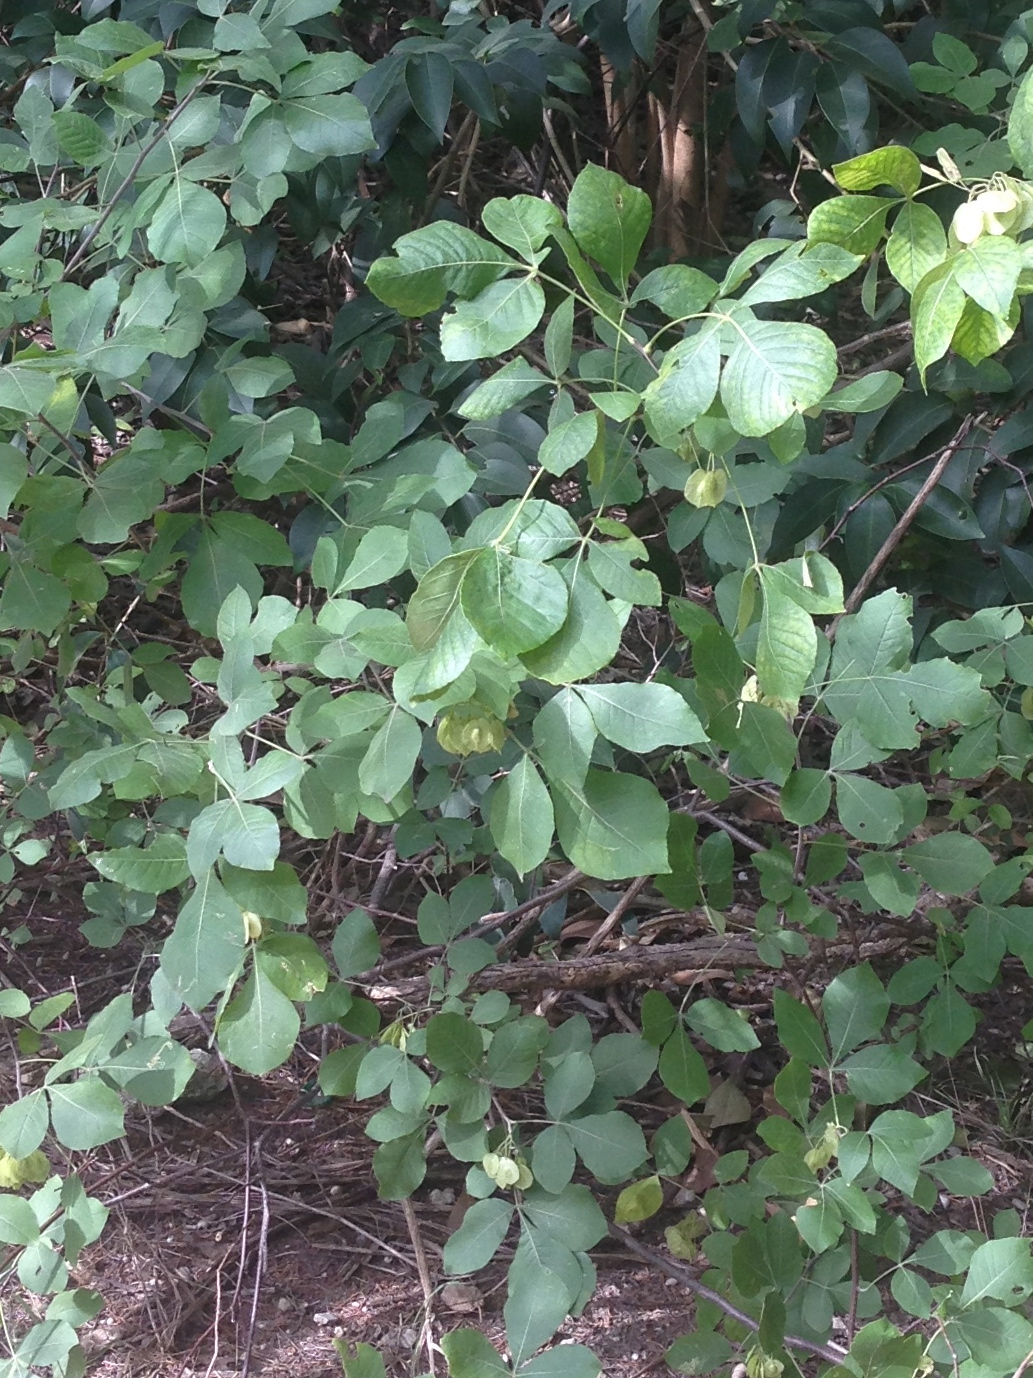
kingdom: Plantae
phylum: Tracheophyta
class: Magnoliopsida
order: Sapindales
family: Rutaceae
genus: Ptelea
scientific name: Ptelea trifoliata
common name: Common hop-tree
